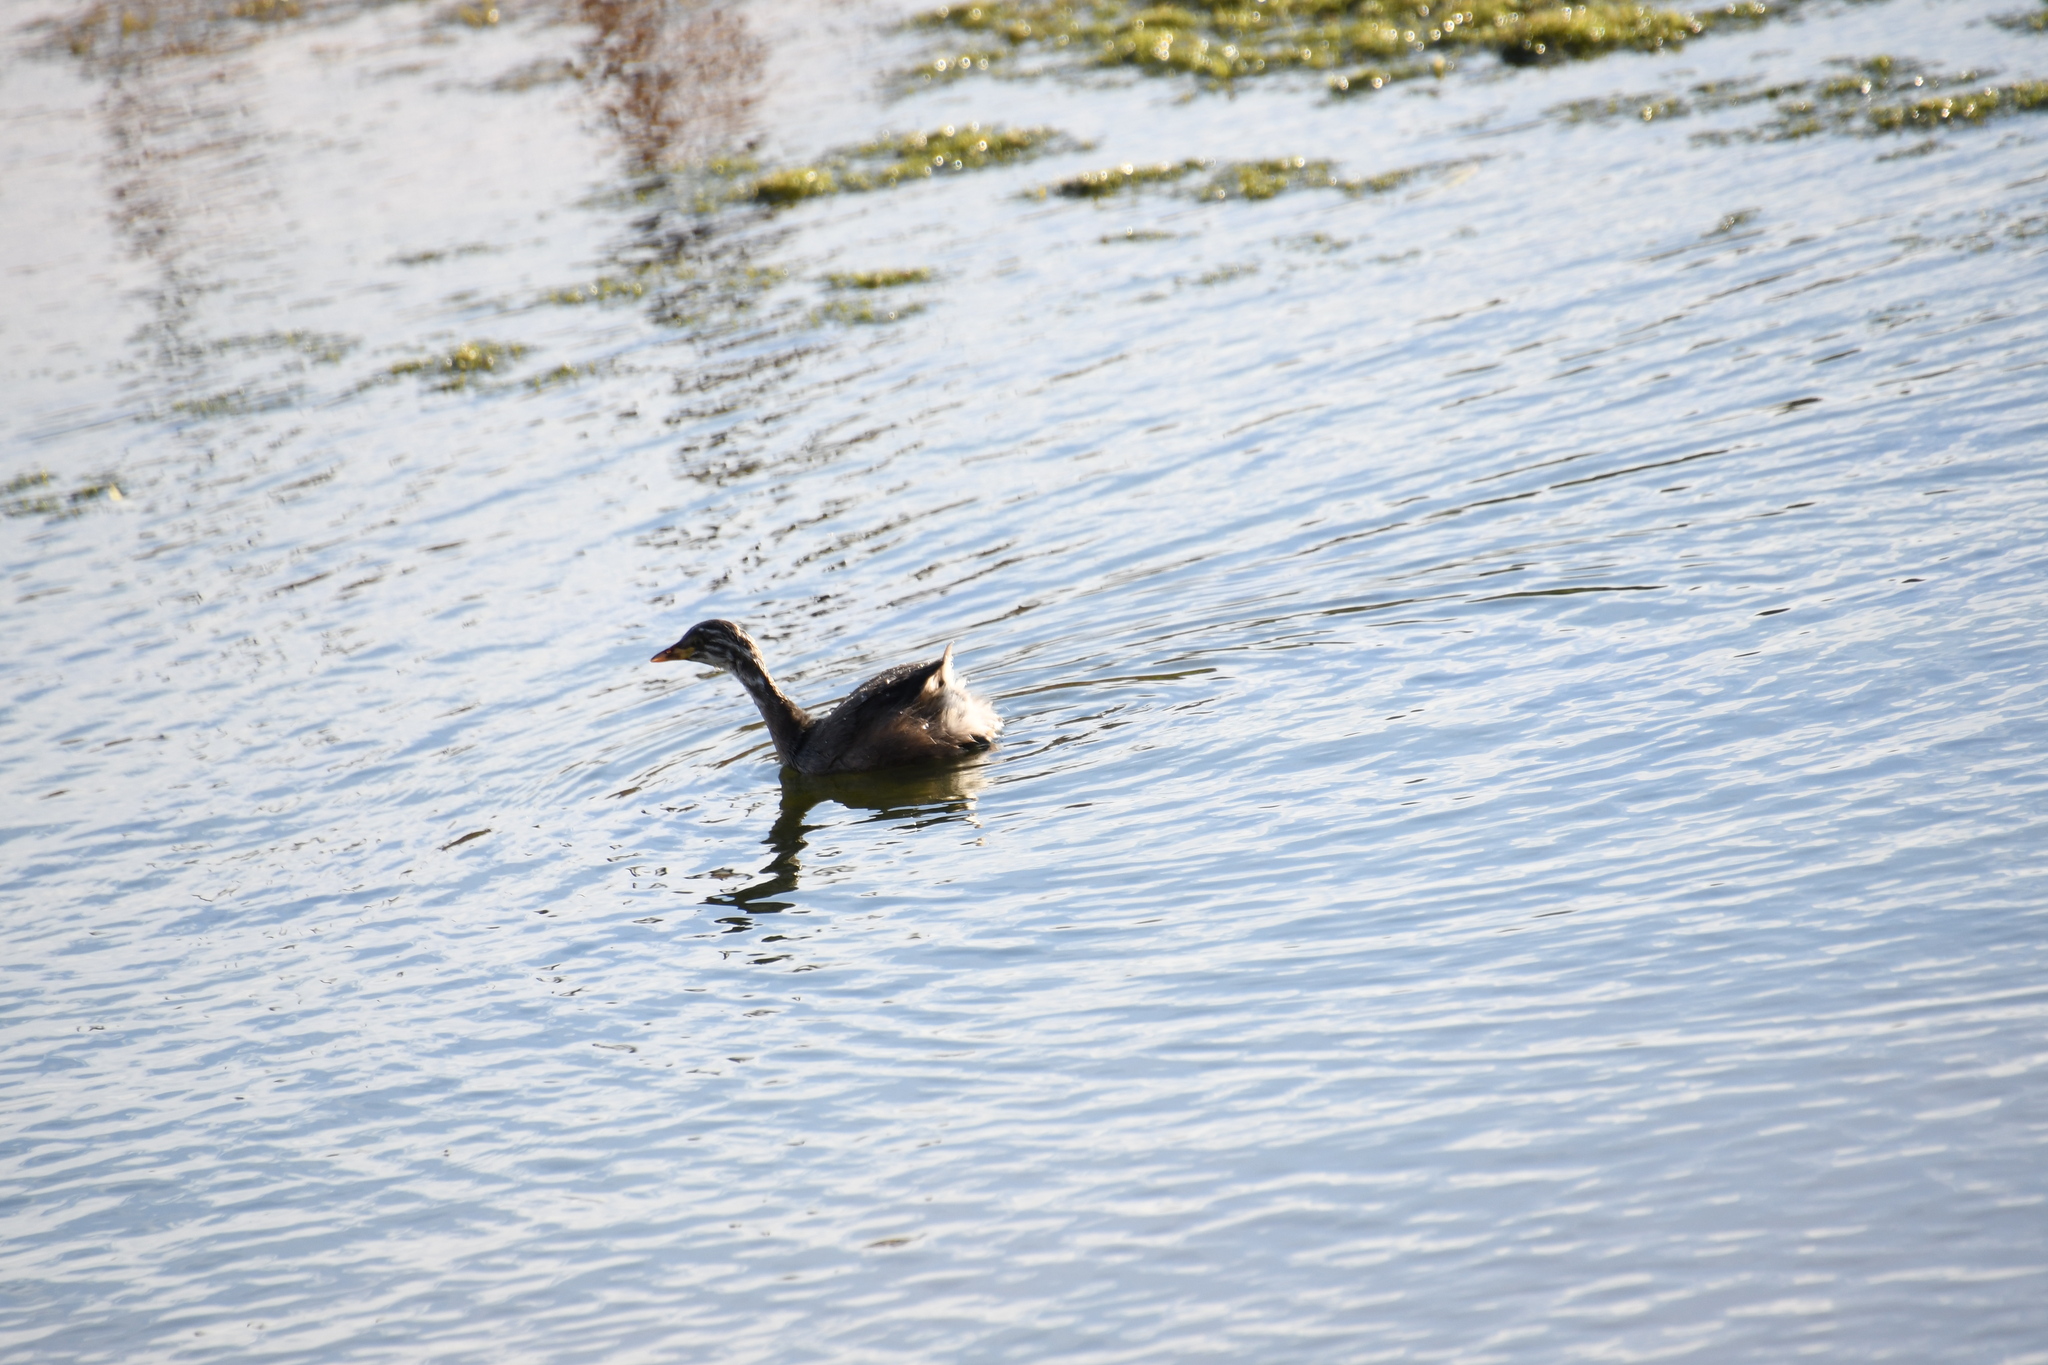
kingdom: Animalia
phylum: Chordata
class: Aves
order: Podicipediformes
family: Podicipedidae
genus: Tachybaptus
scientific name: Tachybaptus novaehollandiae
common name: Australasian grebe
